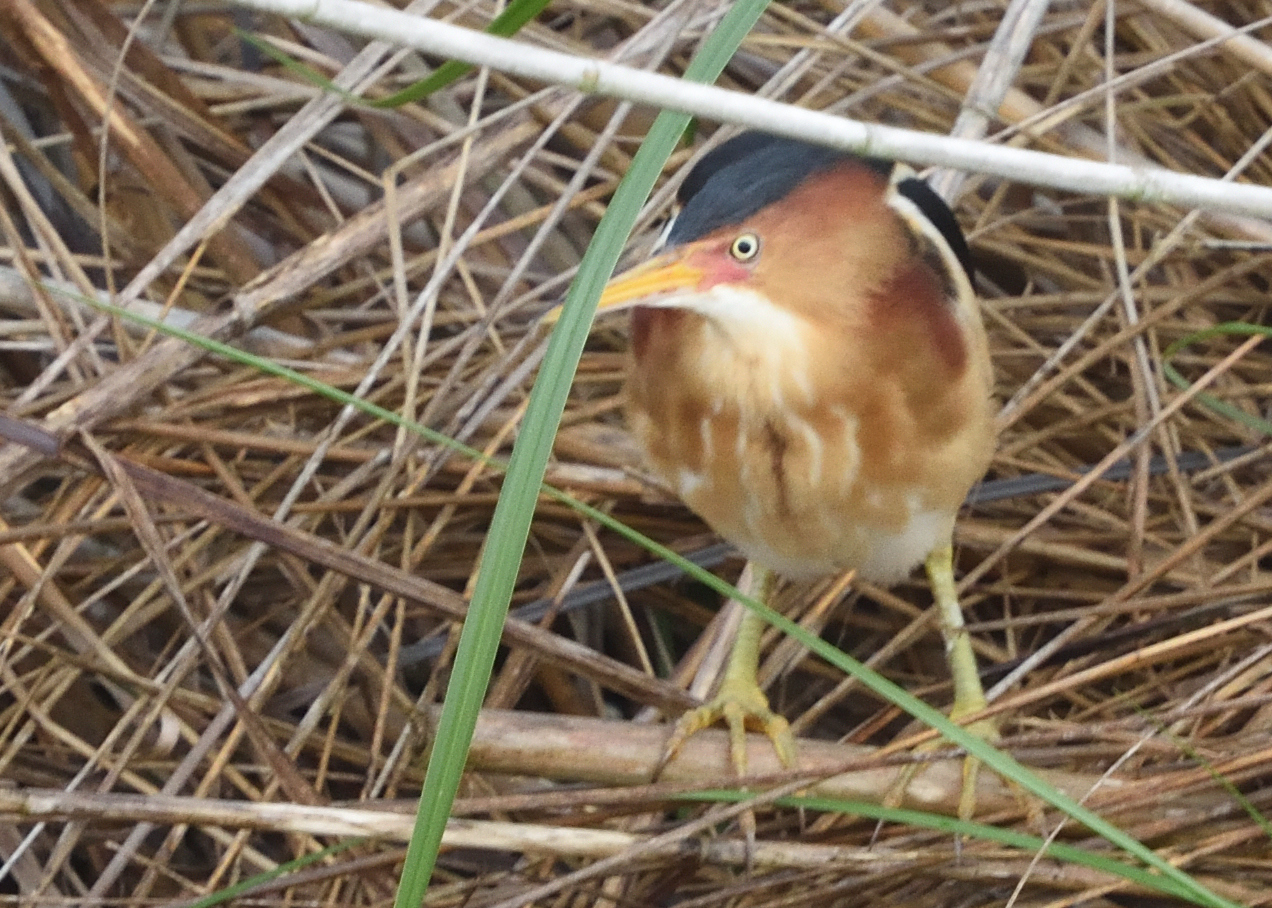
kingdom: Animalia
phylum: Chordata
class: Aves
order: Pelecaniformes
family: Ardeidae
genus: Ixobrychus
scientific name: Ixobrychus exilis
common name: Least bittern
